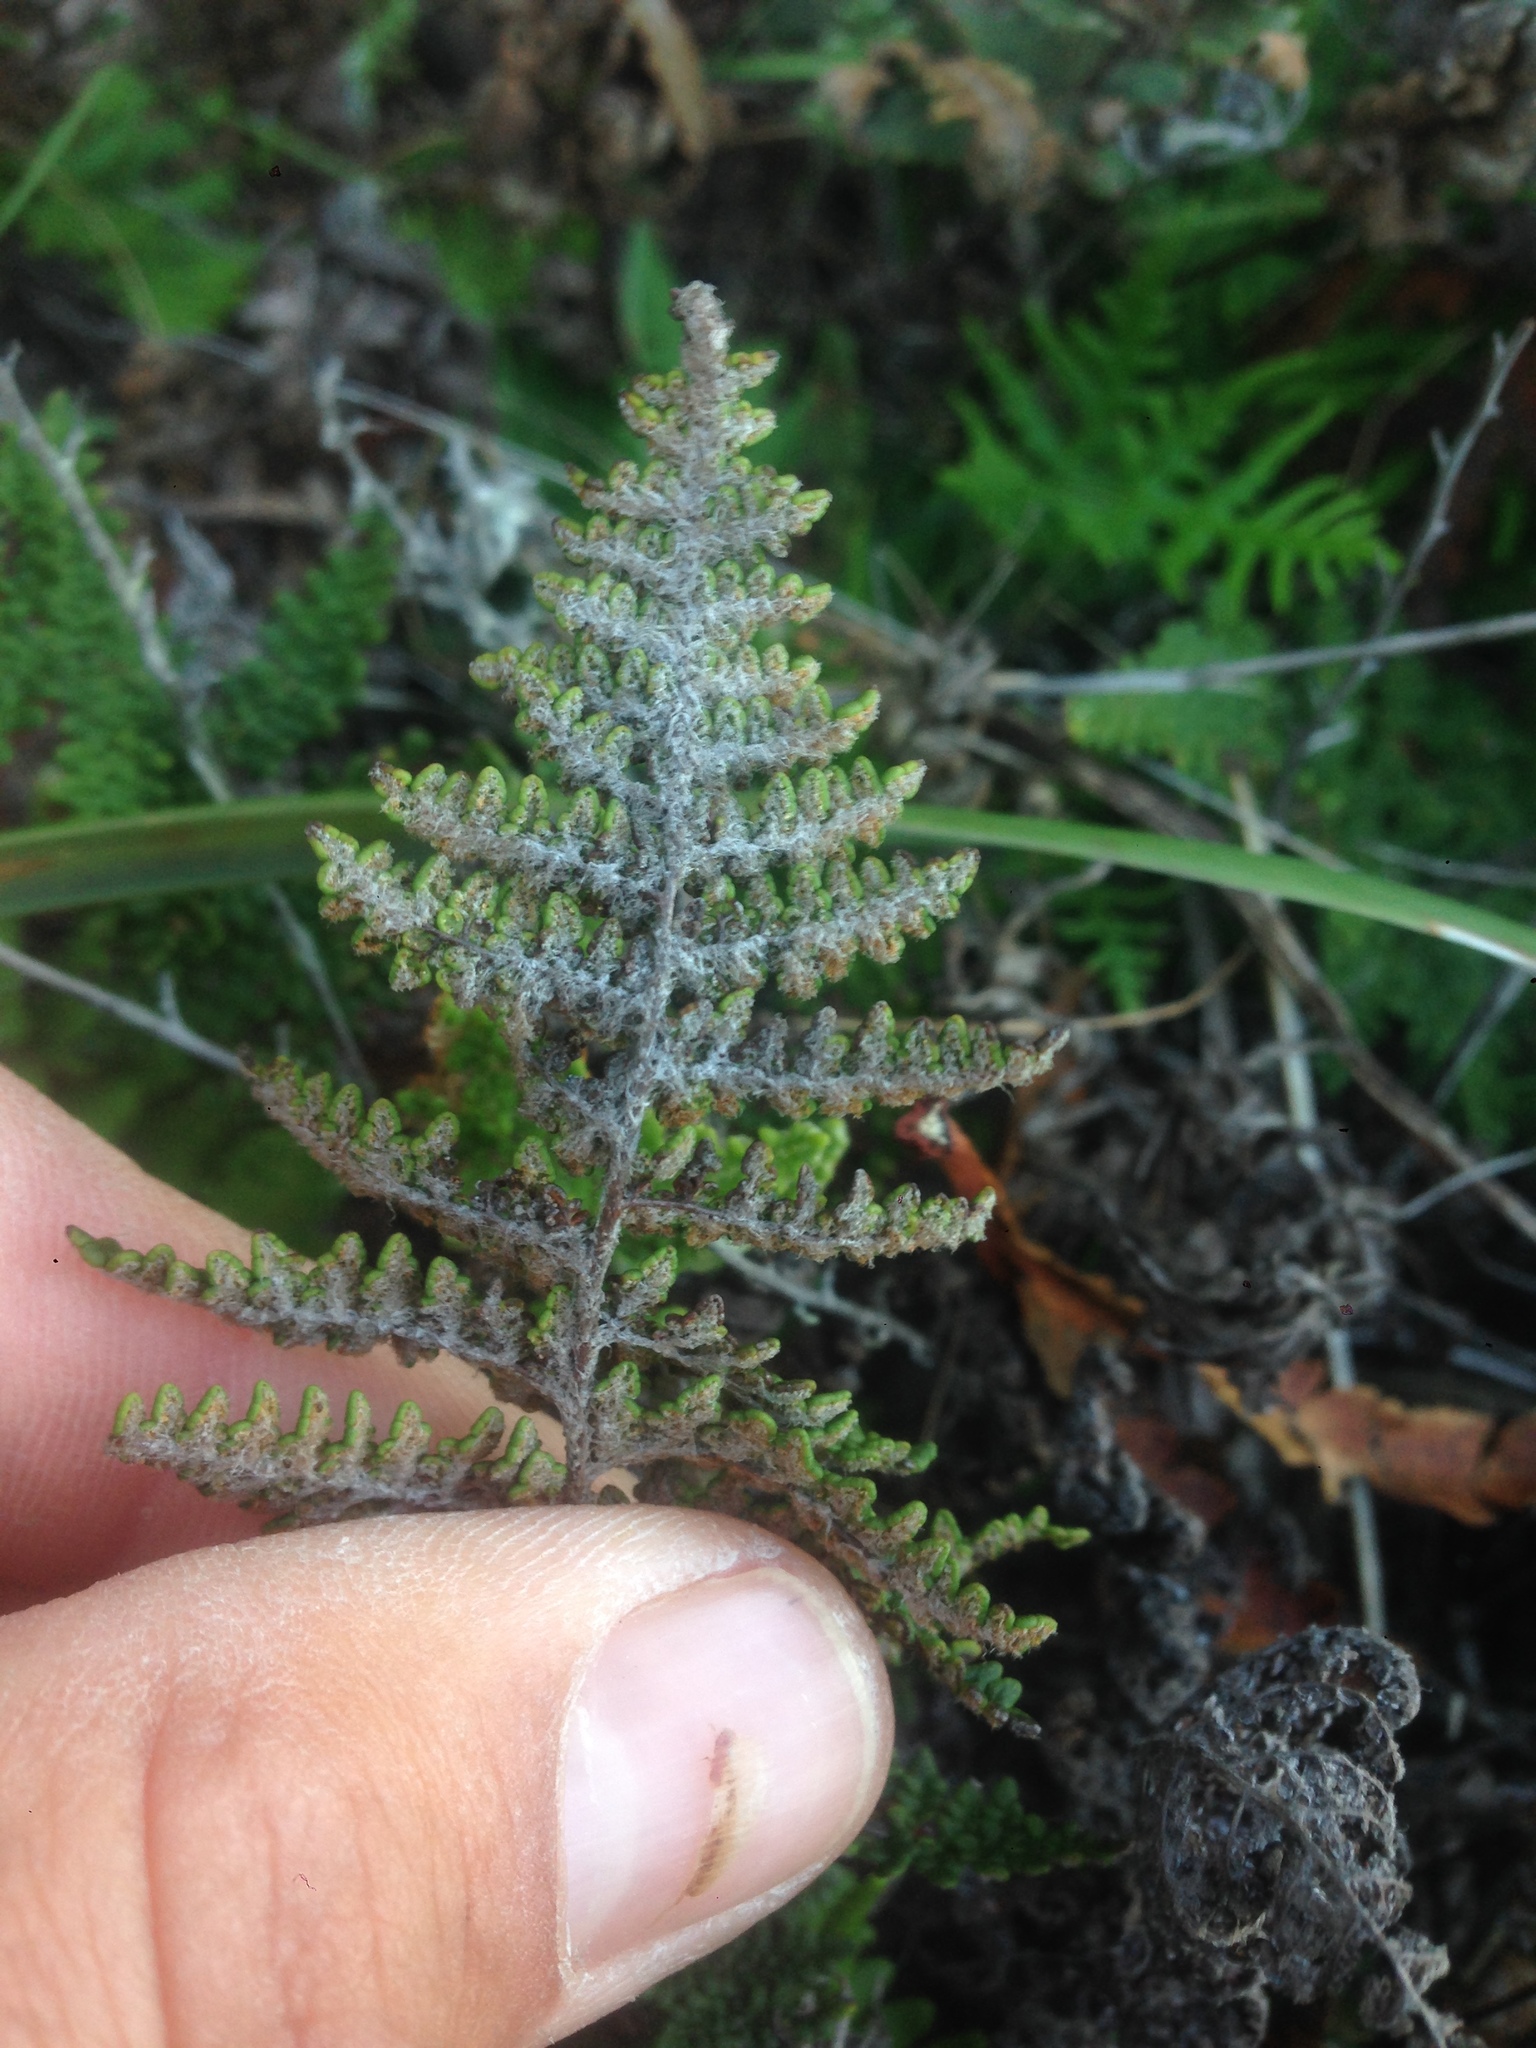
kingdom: Plantae
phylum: Tracheophyta
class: Polypodiopsida
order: Polypodiales
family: Pteridaceae
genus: Myriopteris
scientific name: Myriopteris clevelandii
